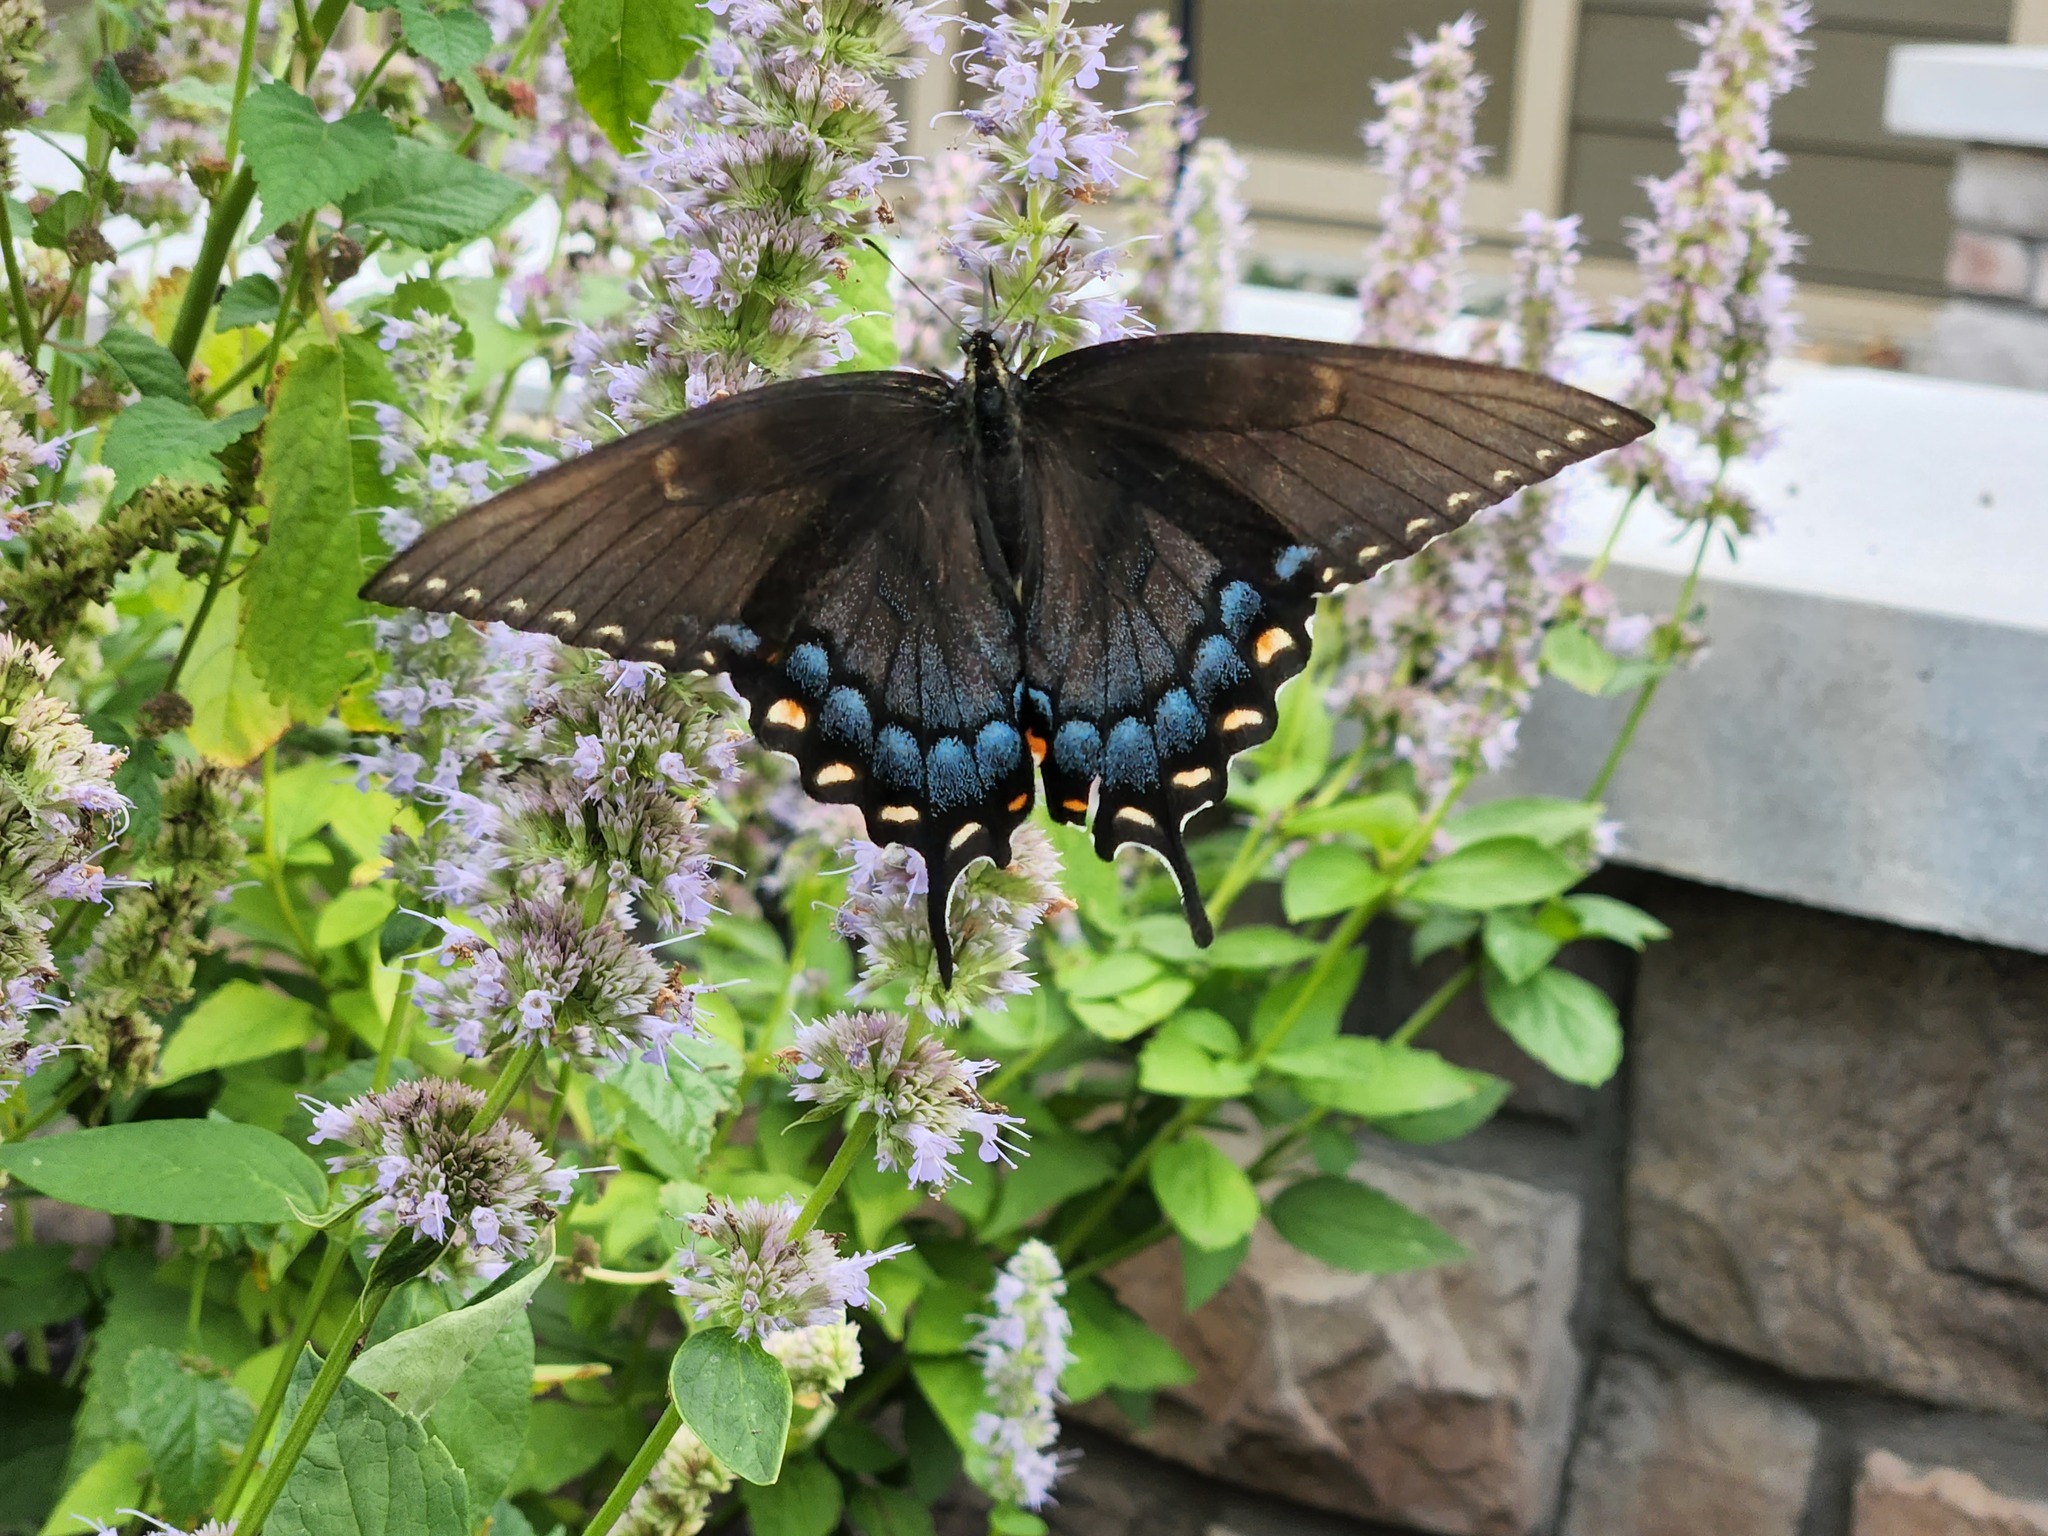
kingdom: Animalia
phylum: Arthropoda
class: Insecta
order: Lepidoptera
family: Papilionidae
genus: Papilio
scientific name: Papilio glaucus
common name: Tiger swallowtail
